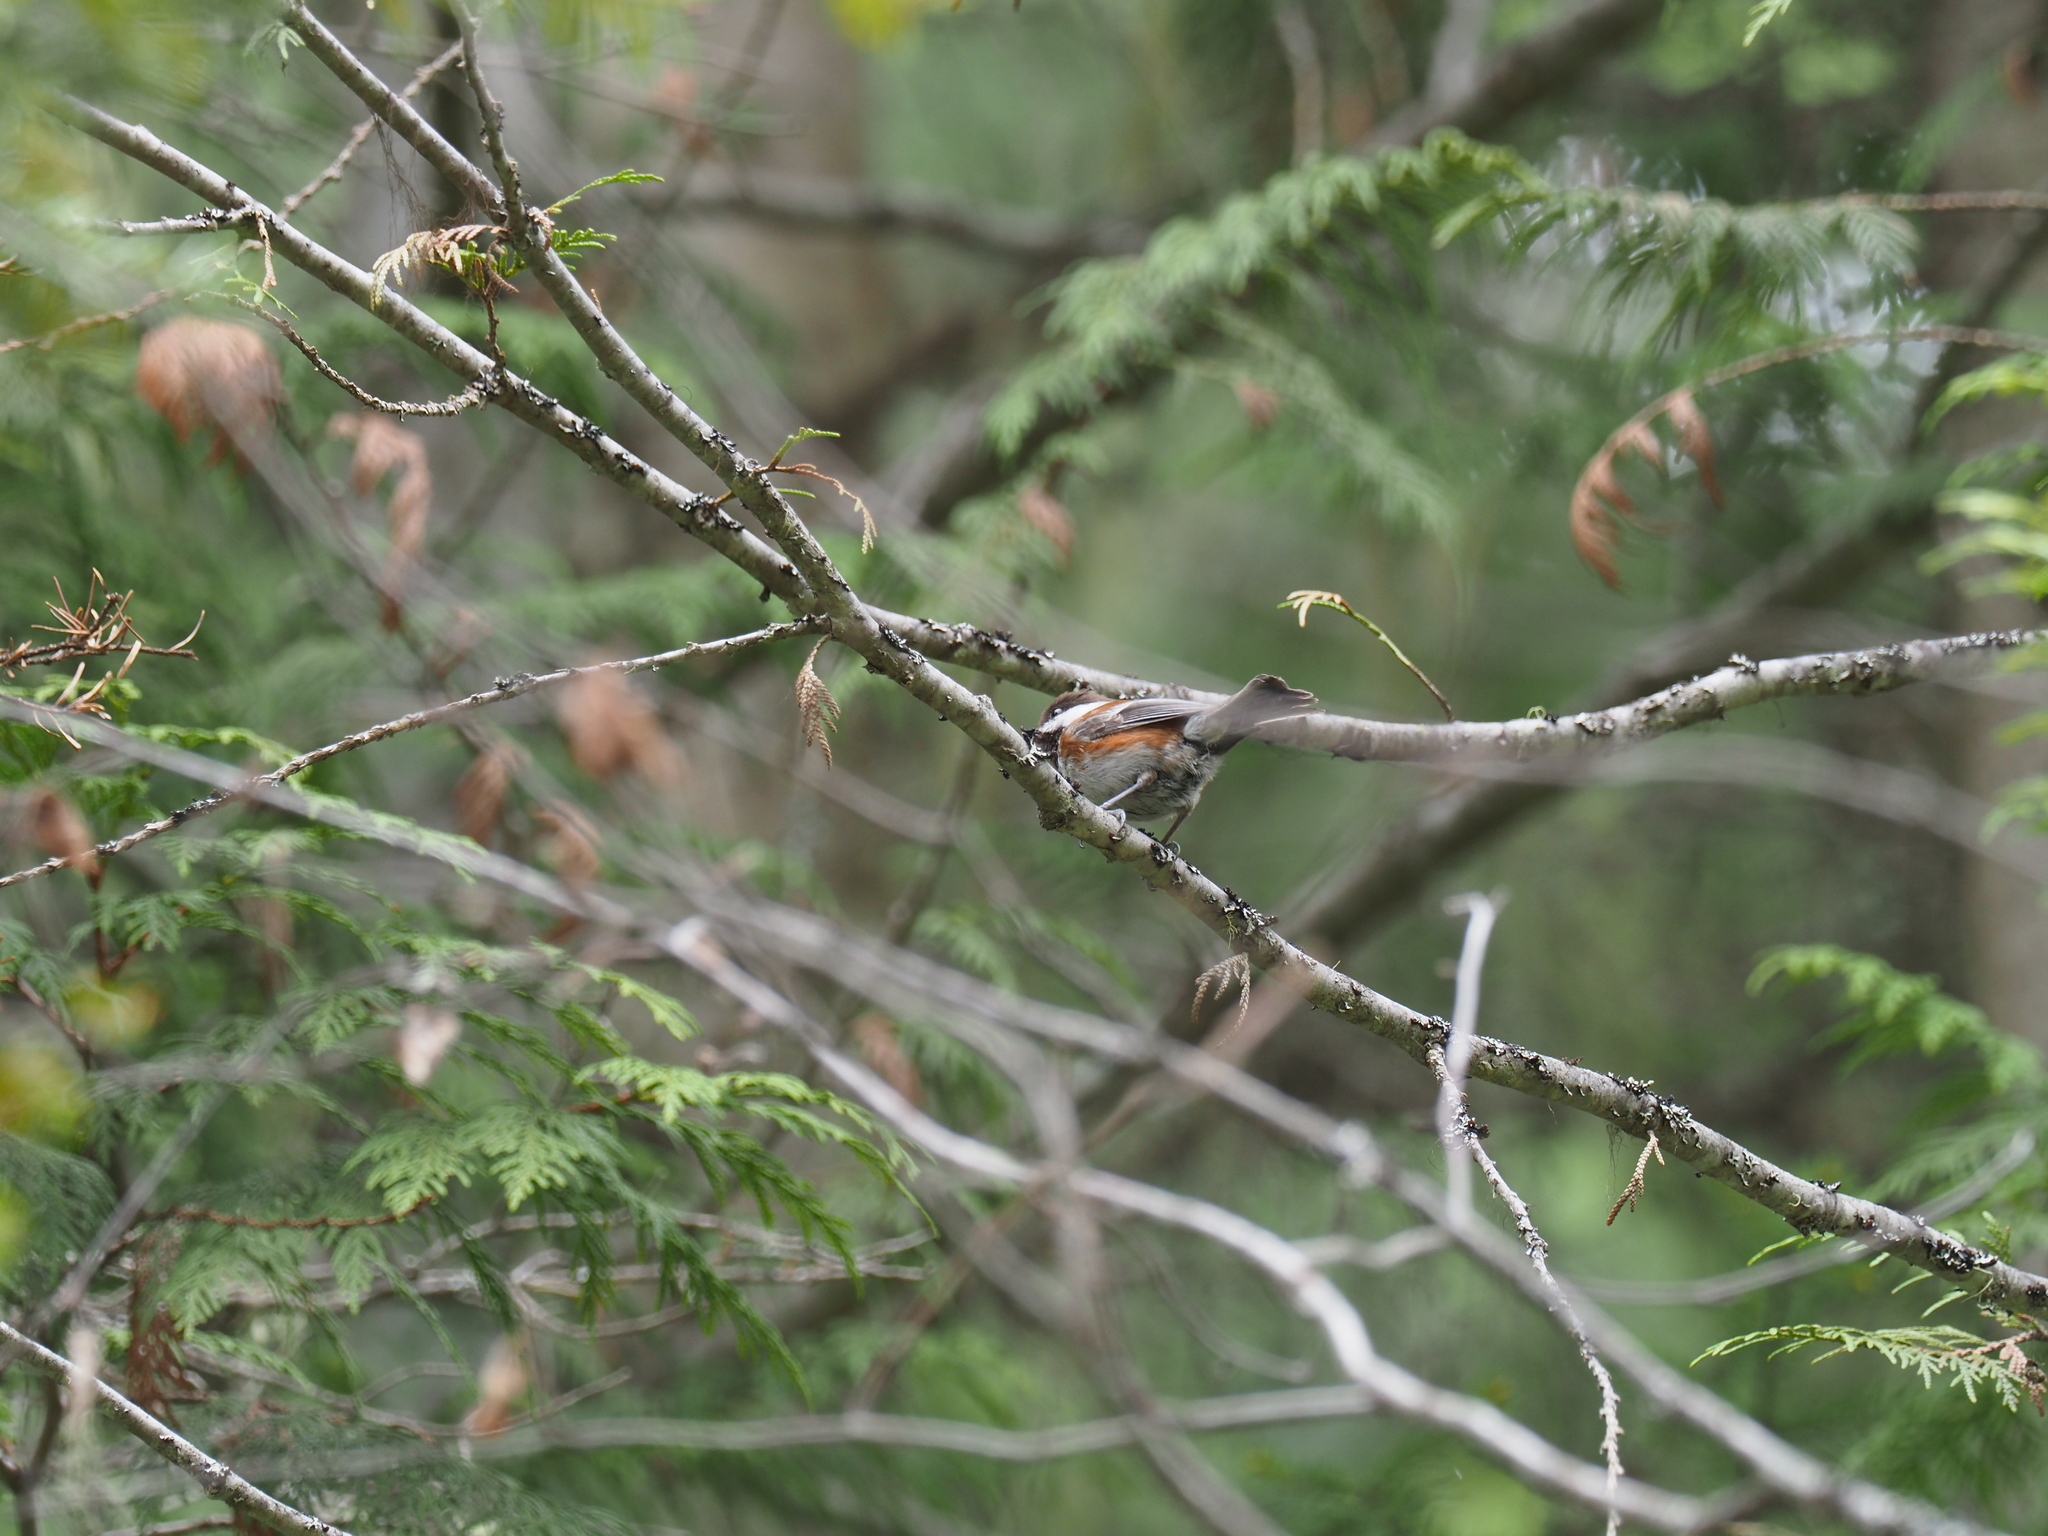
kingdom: Animalia
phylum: Chordata
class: Aves
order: Passeriformes
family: Paridae
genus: Poecile
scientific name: Poecile rufescens
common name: Chestnut-backed chickadee
